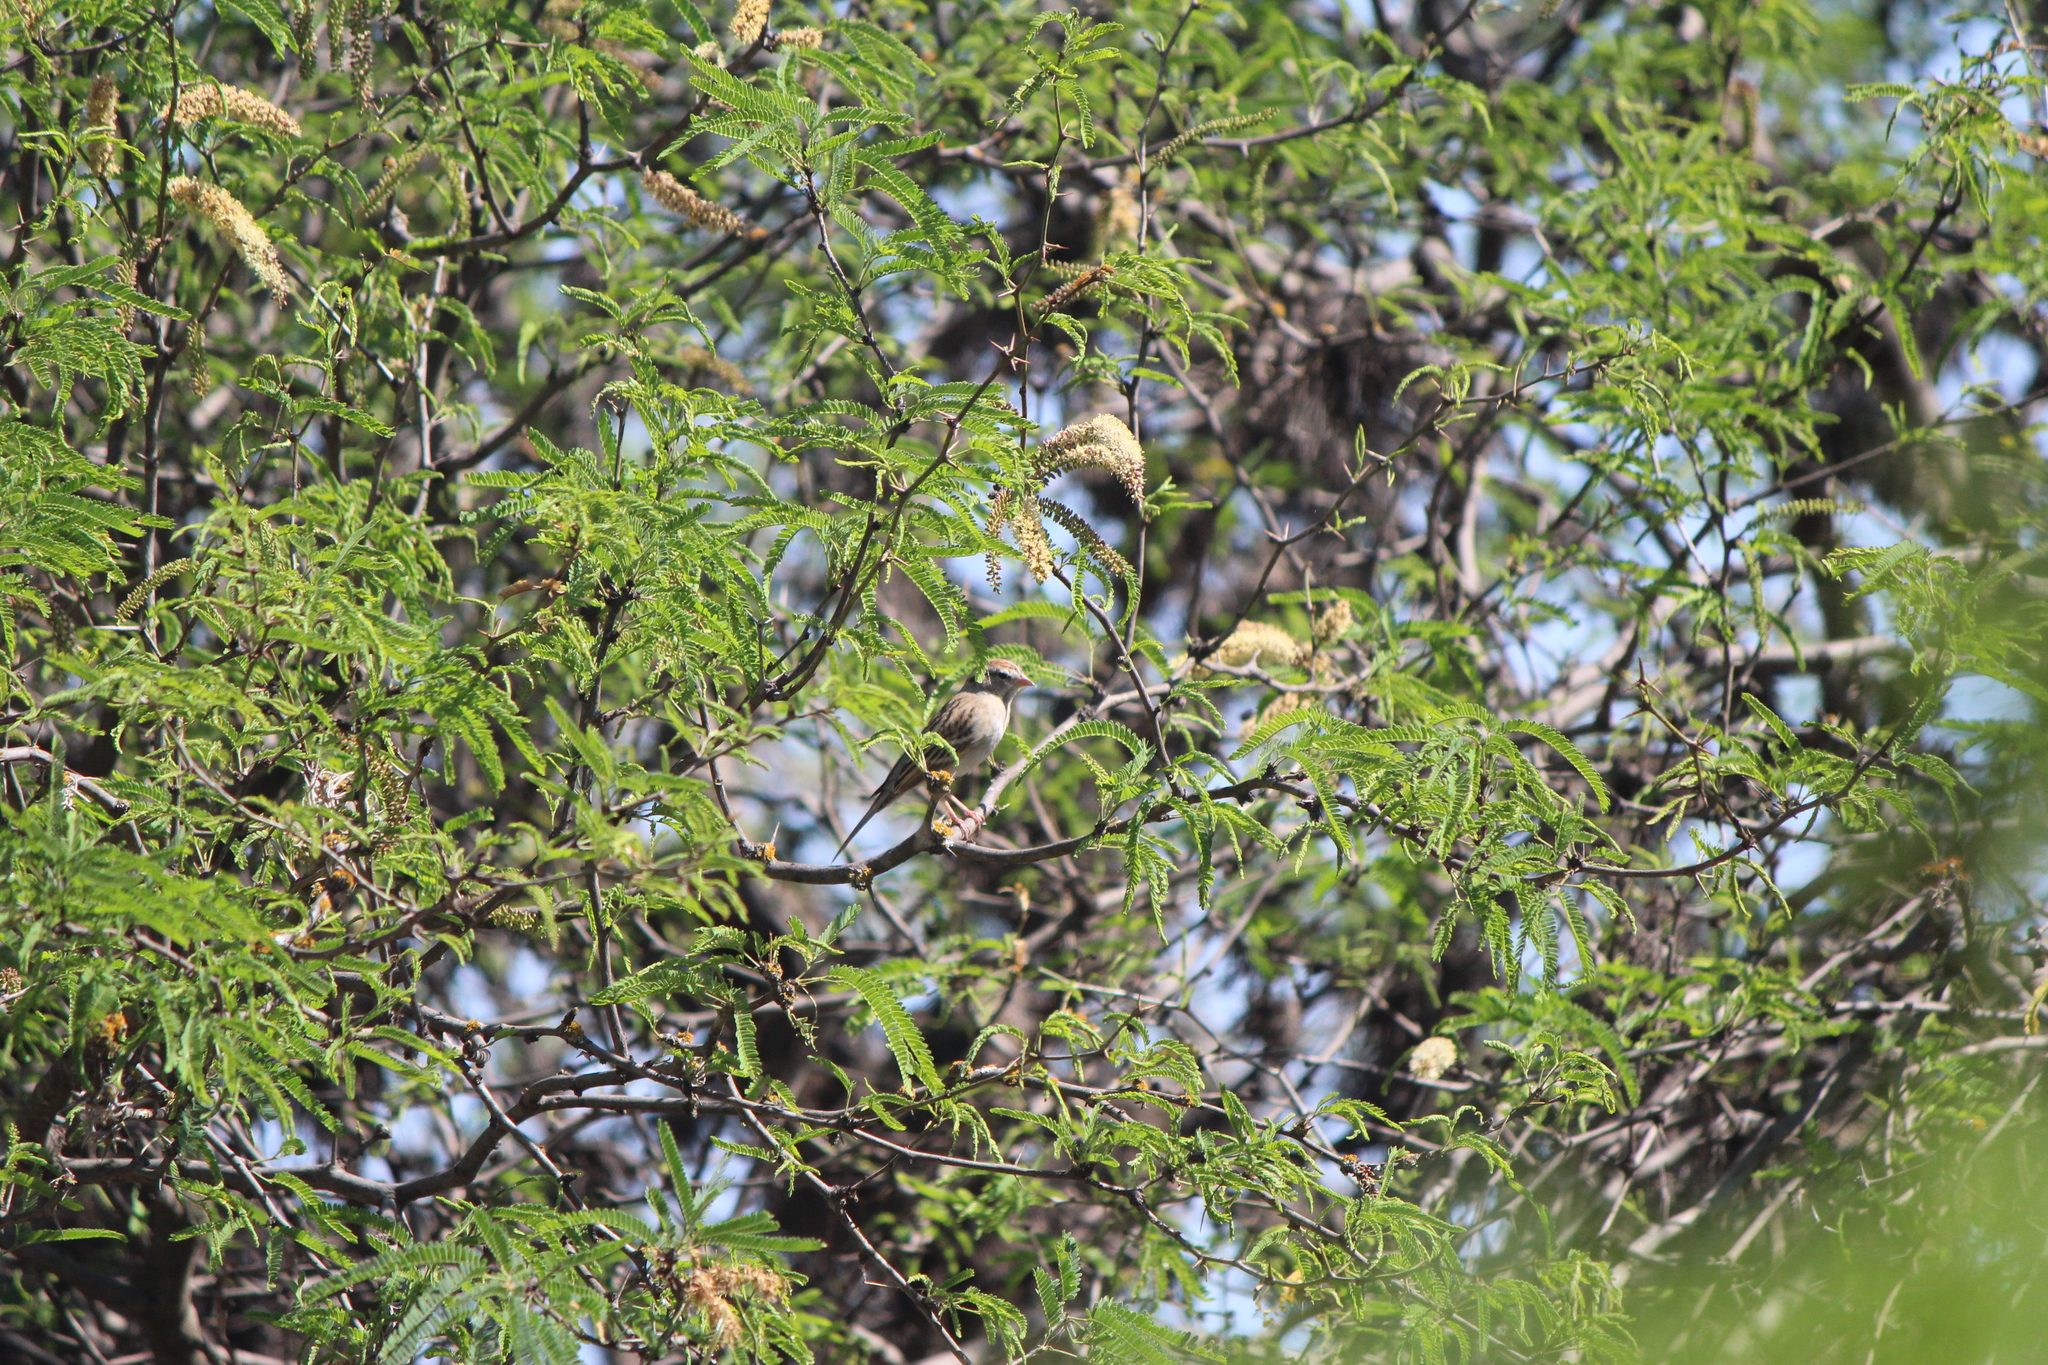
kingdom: Animalia
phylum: Chordata
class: Aves
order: Passeriformes
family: Passerellidae
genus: Spizella
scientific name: Spizella passerina
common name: Chipping sparrow
